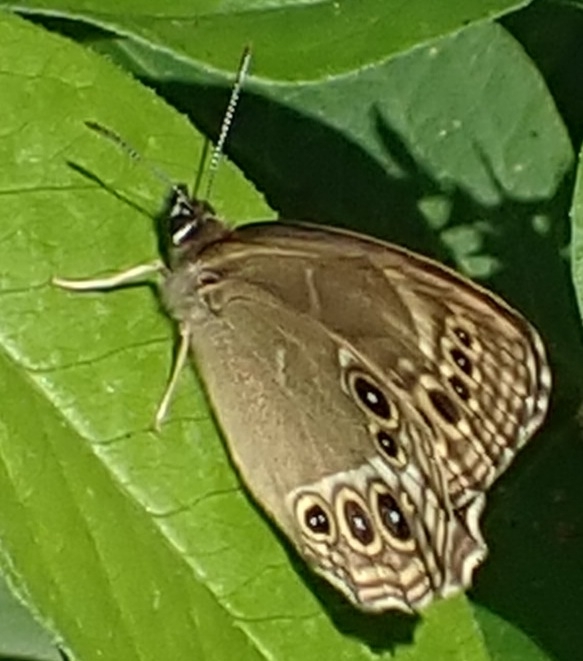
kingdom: Animalia
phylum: Arthropoda
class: Insecta
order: Lepidoptera
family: Nymphalidae
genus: Pararge
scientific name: Pararge Lopinga achine
